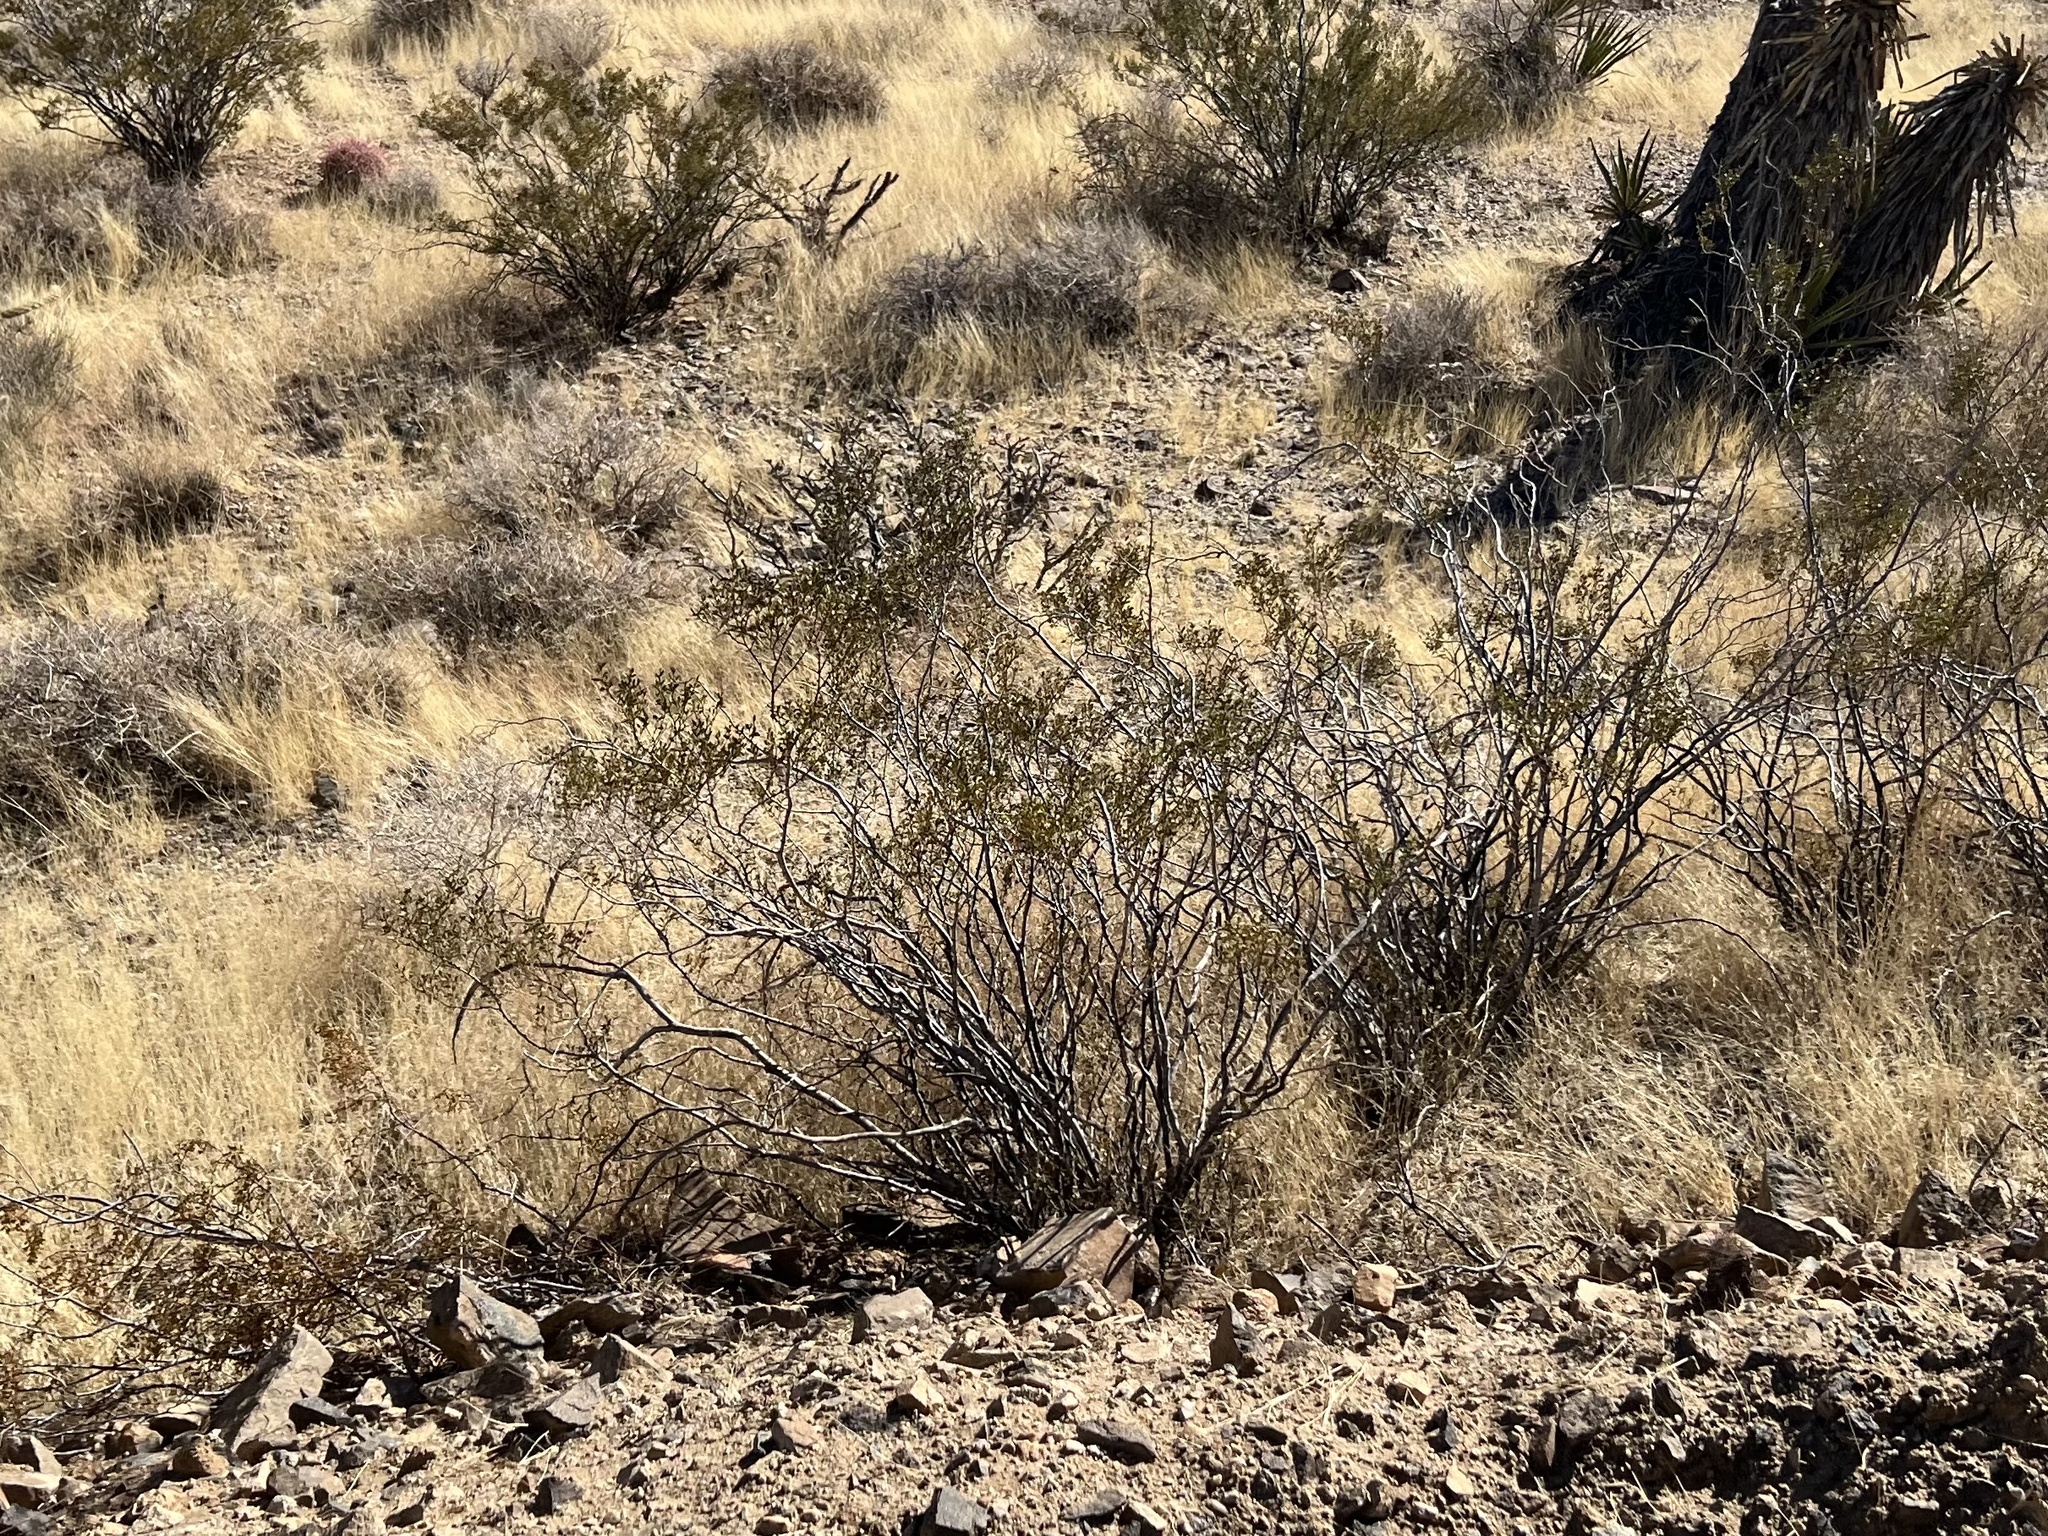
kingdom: Plantae
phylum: Tracheophyta
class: Magnoliopsida
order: Zygophyllales
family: Zygophyllaceae
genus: Larrea
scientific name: Larrea tridentata
